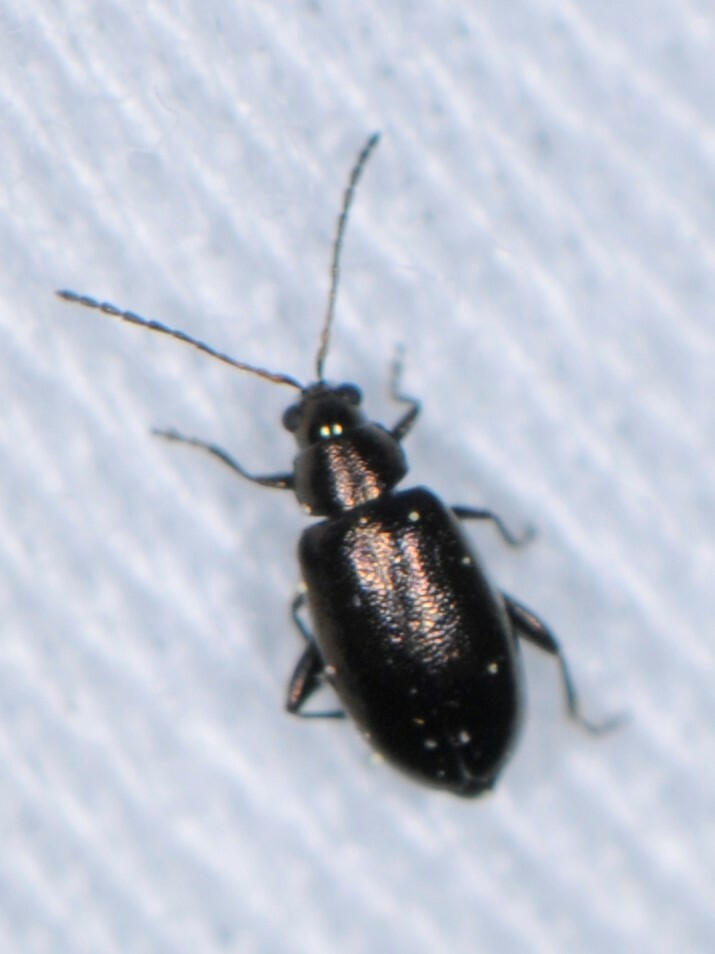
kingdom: Animalia
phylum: Arthropoda
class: Insecta
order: Coleoptera
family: Chrysomelidae
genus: Phyllotreta
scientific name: Phyllotreta
